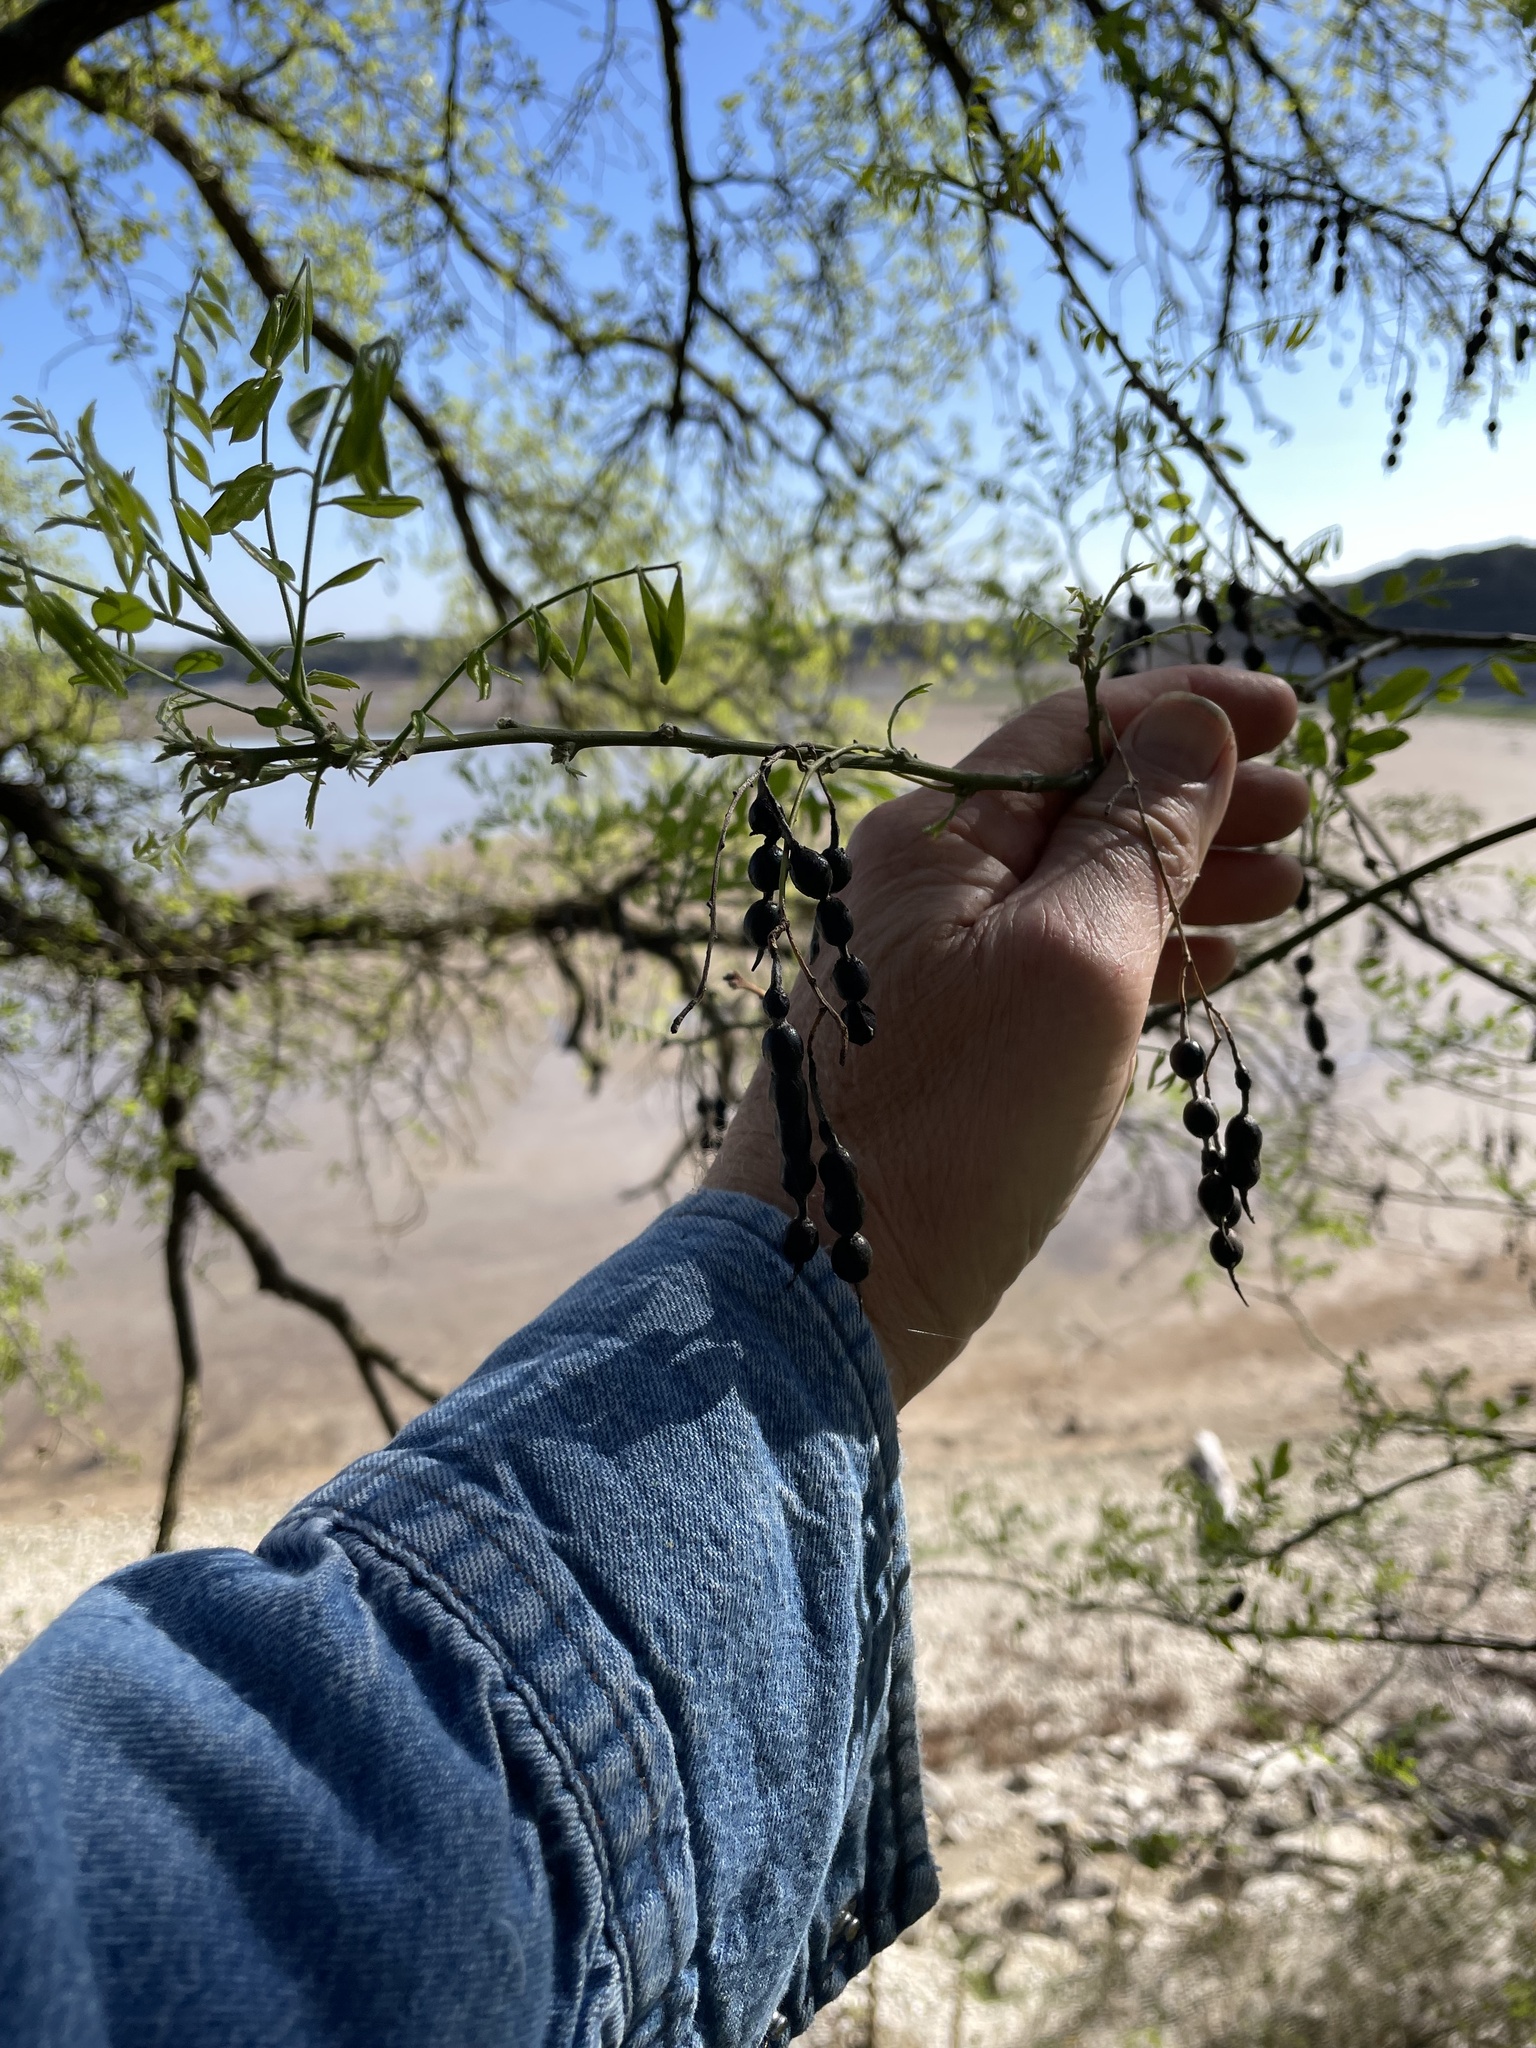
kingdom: Plantae
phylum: Tracheophyta
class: Magnoliopsida
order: Fabales
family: Fabaceae
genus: Styphnolobium
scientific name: Styphnolobium affine
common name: Texas sophora
